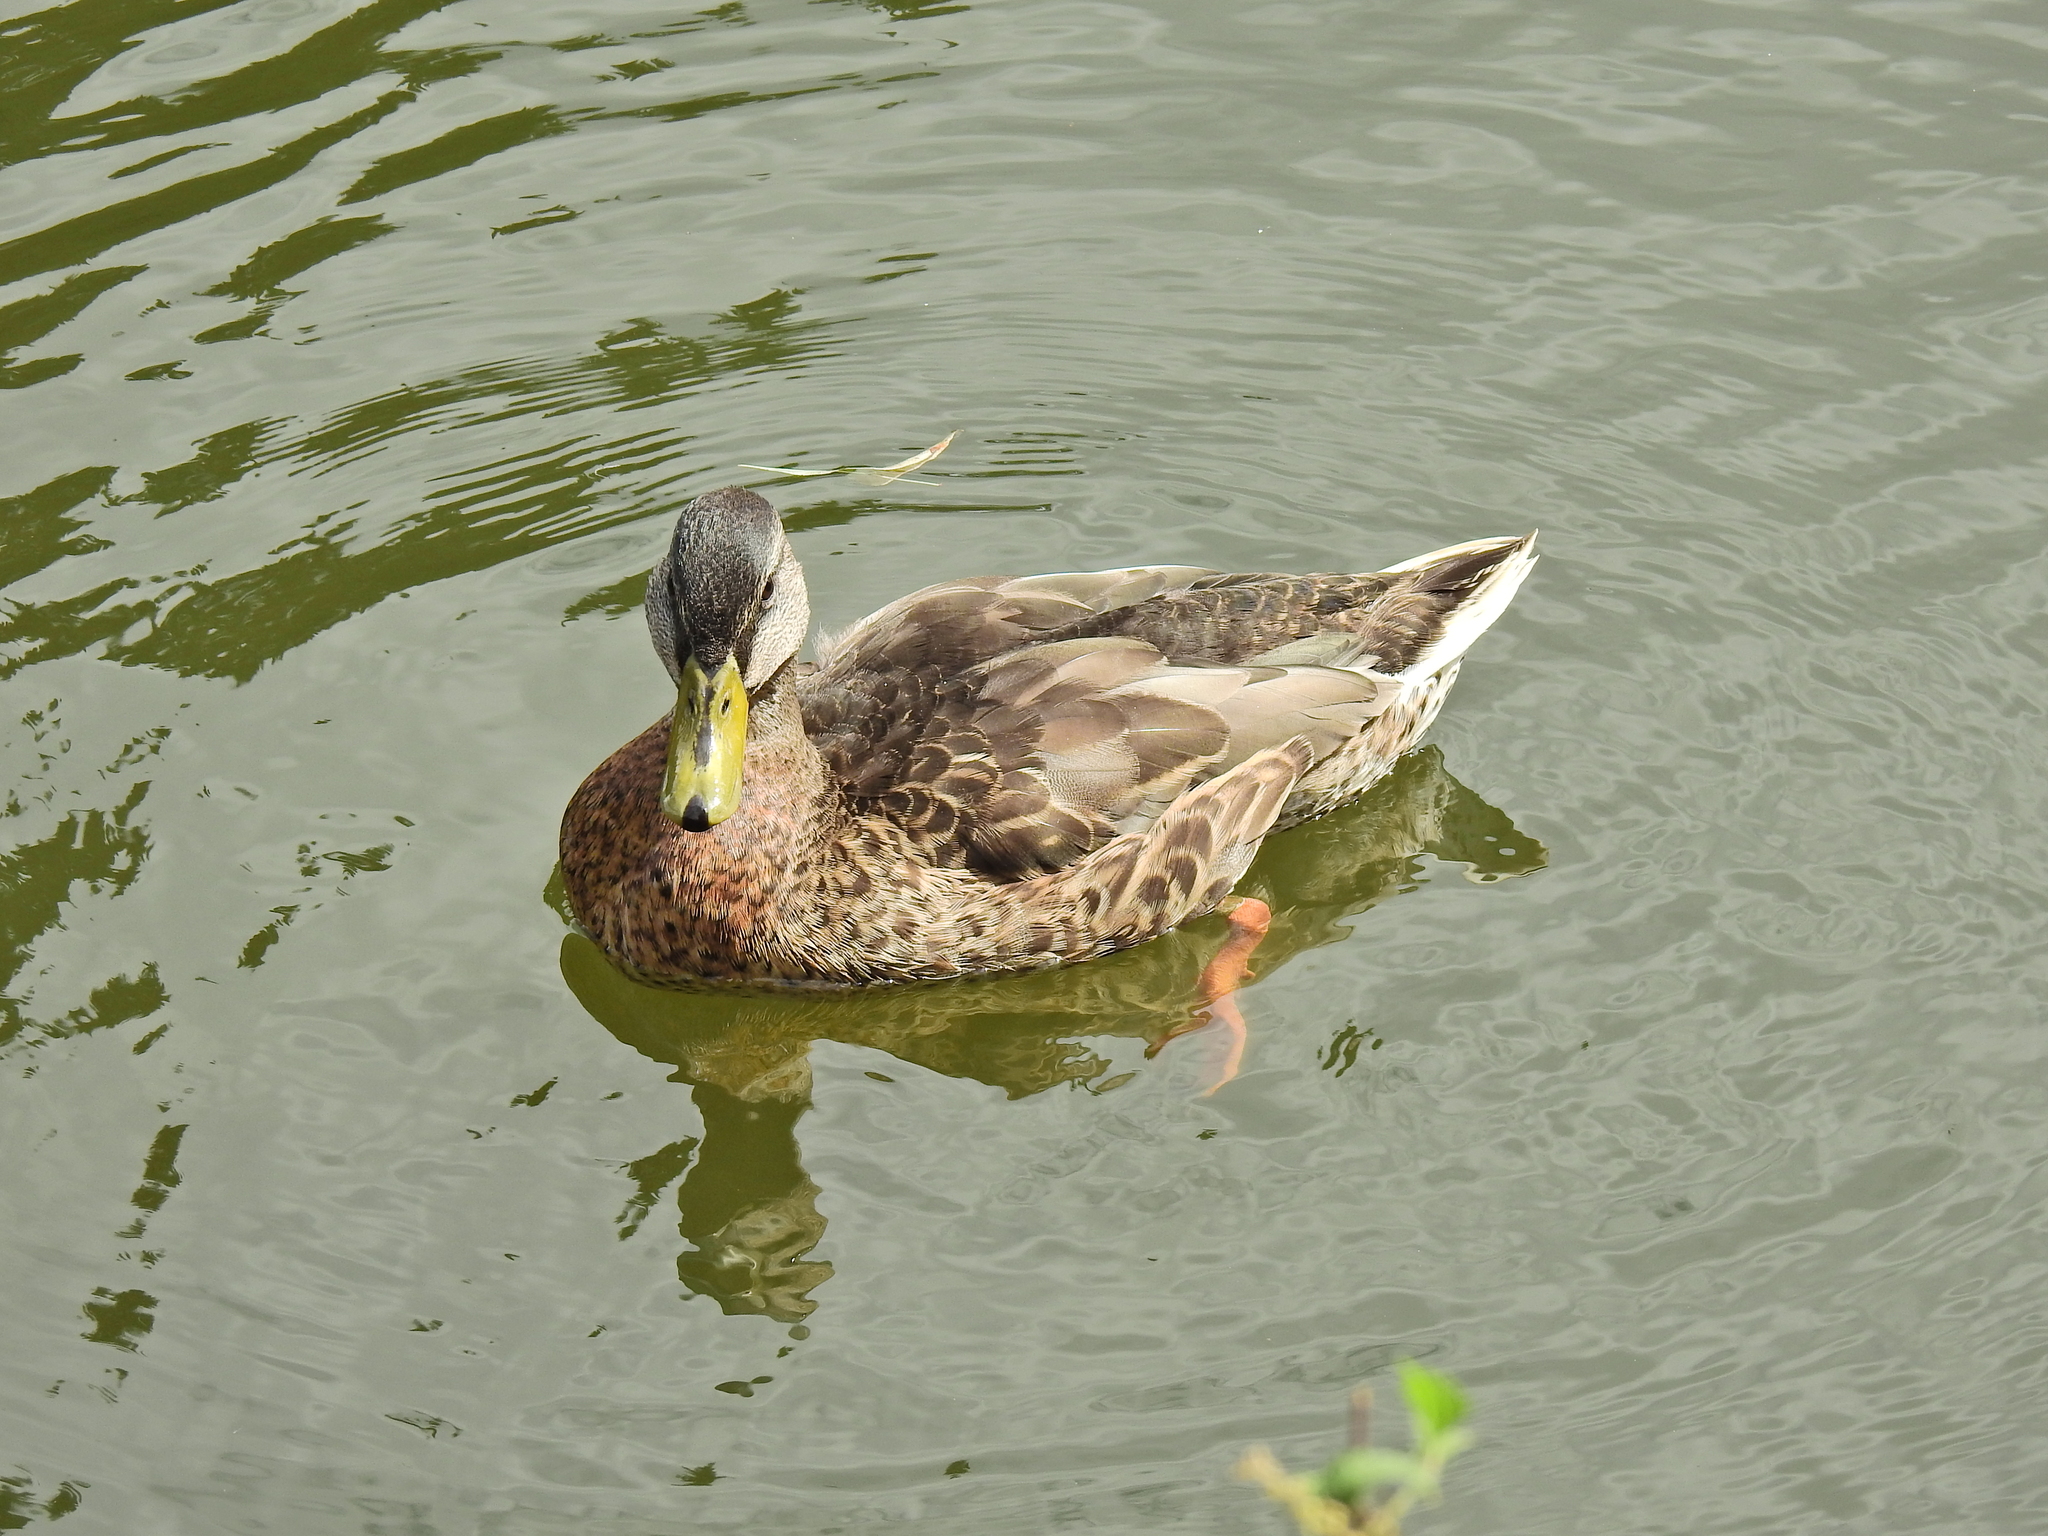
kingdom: Animalia
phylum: Chordata
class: Aves
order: Anseriformes
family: Anatidae
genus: Anas
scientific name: Anas platyrhynchos
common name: Mallard
